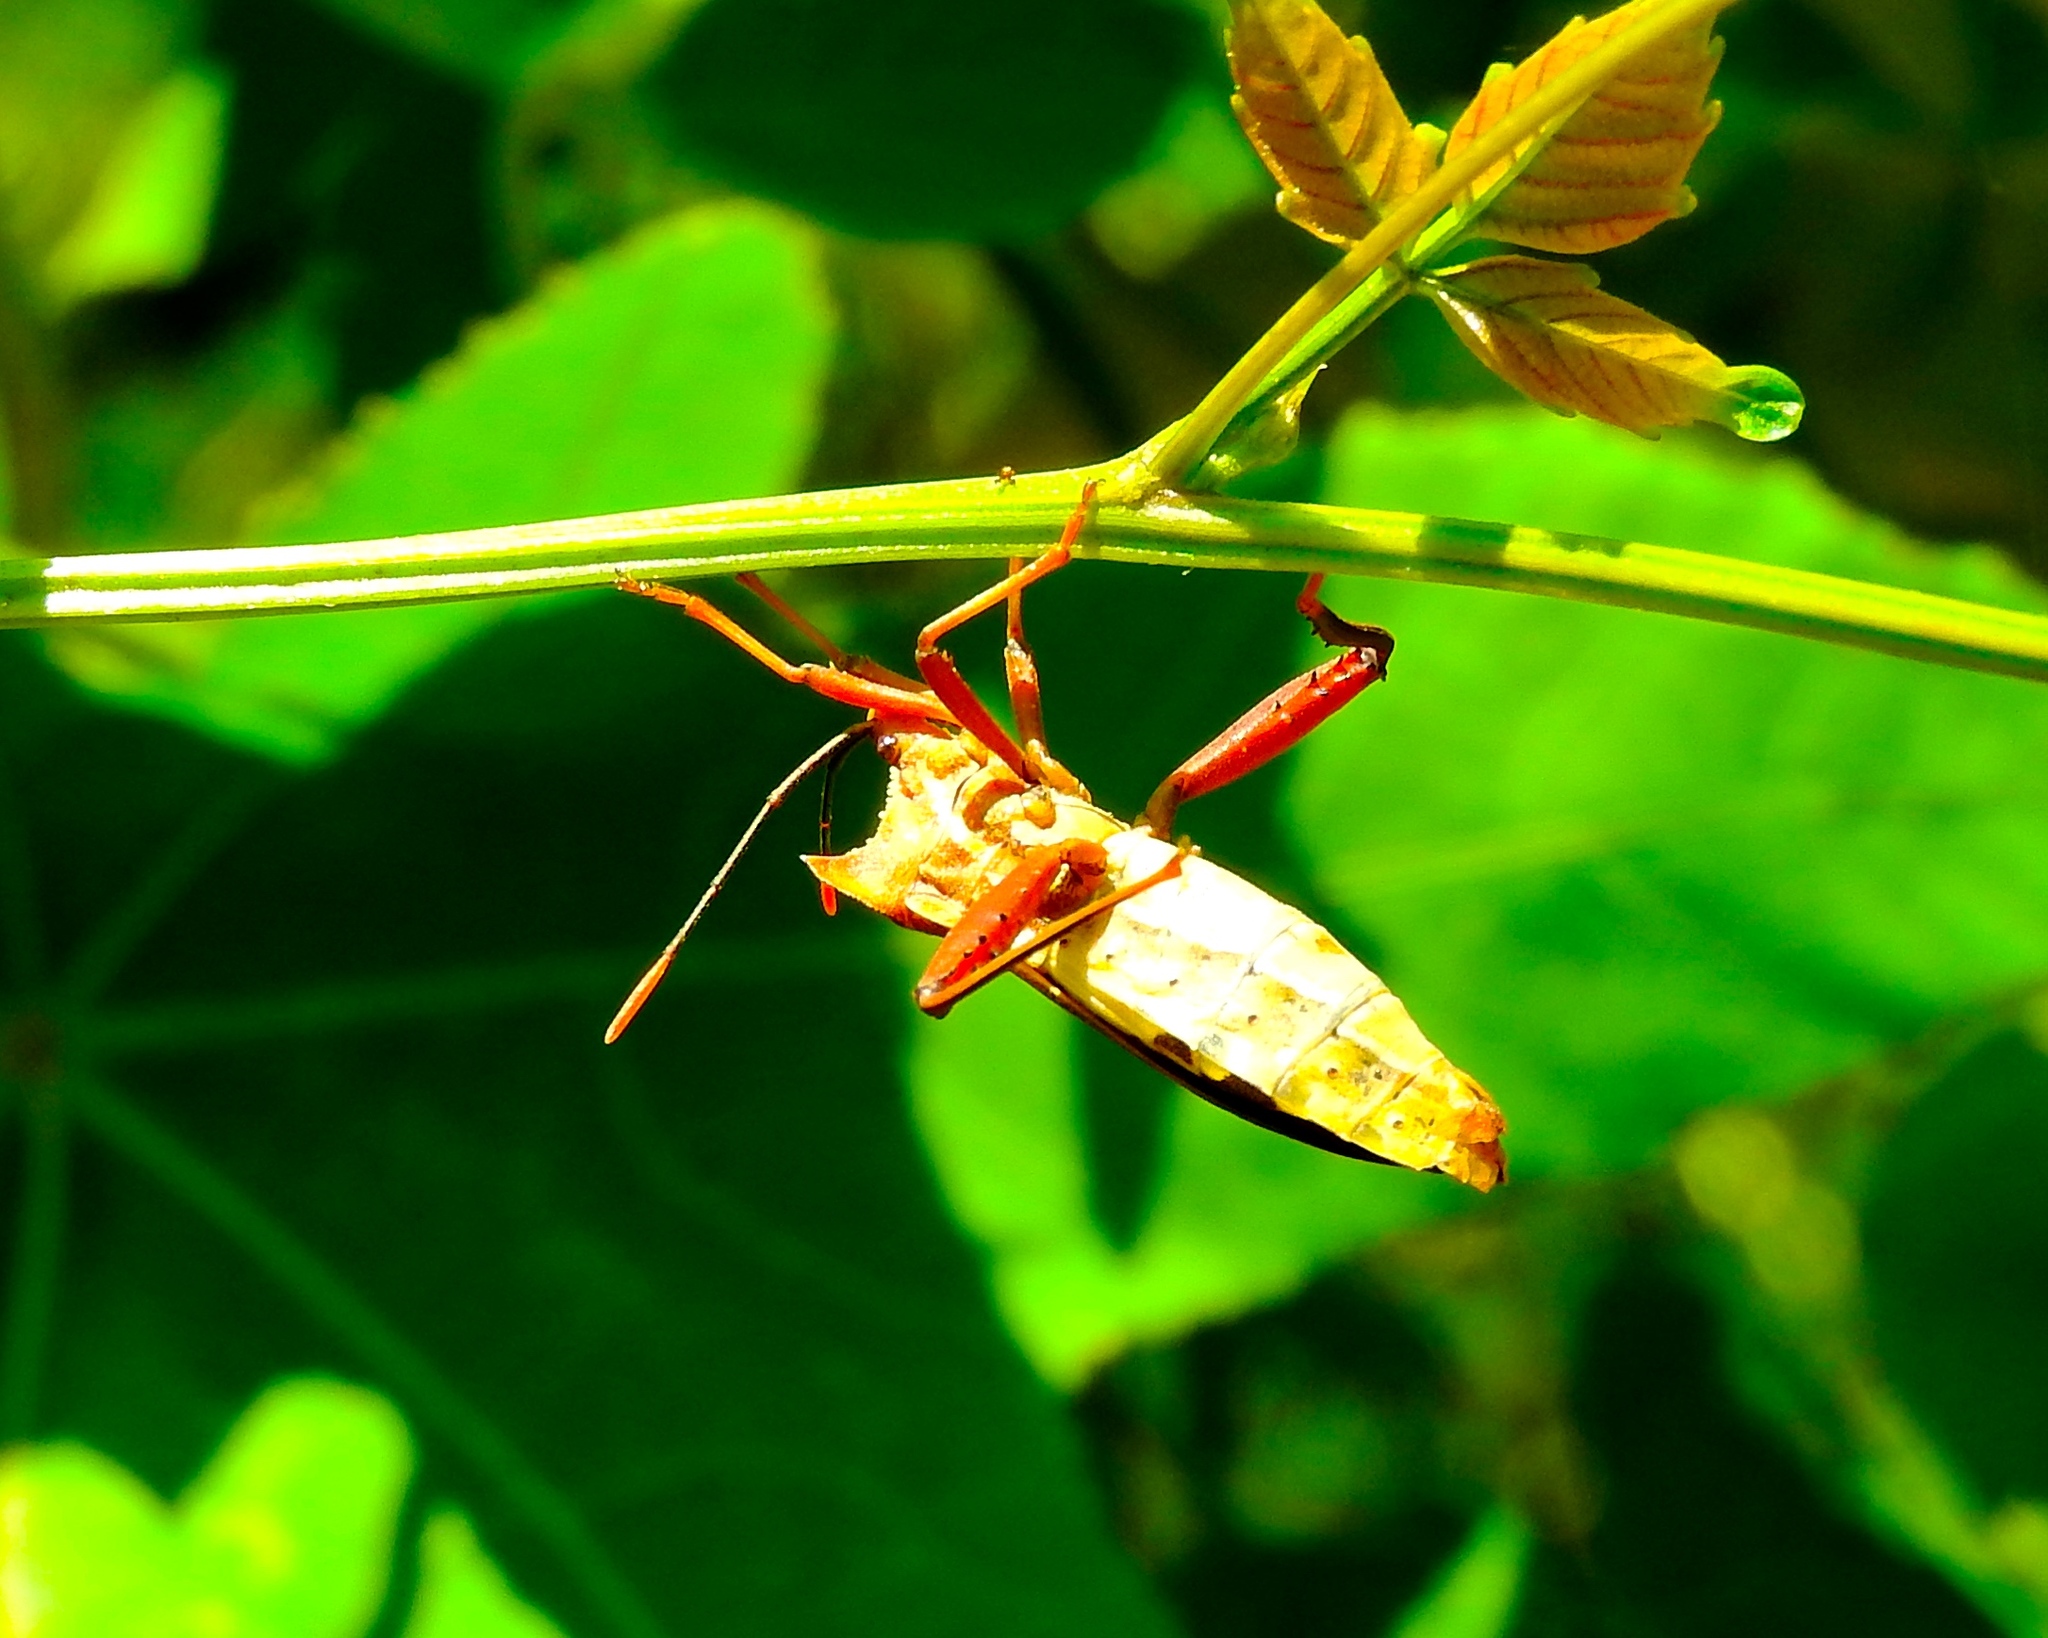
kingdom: Animalia
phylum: Arthropoda
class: Insecta
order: Hemiptera
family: Coreidae
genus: Mozena
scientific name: Mozena
